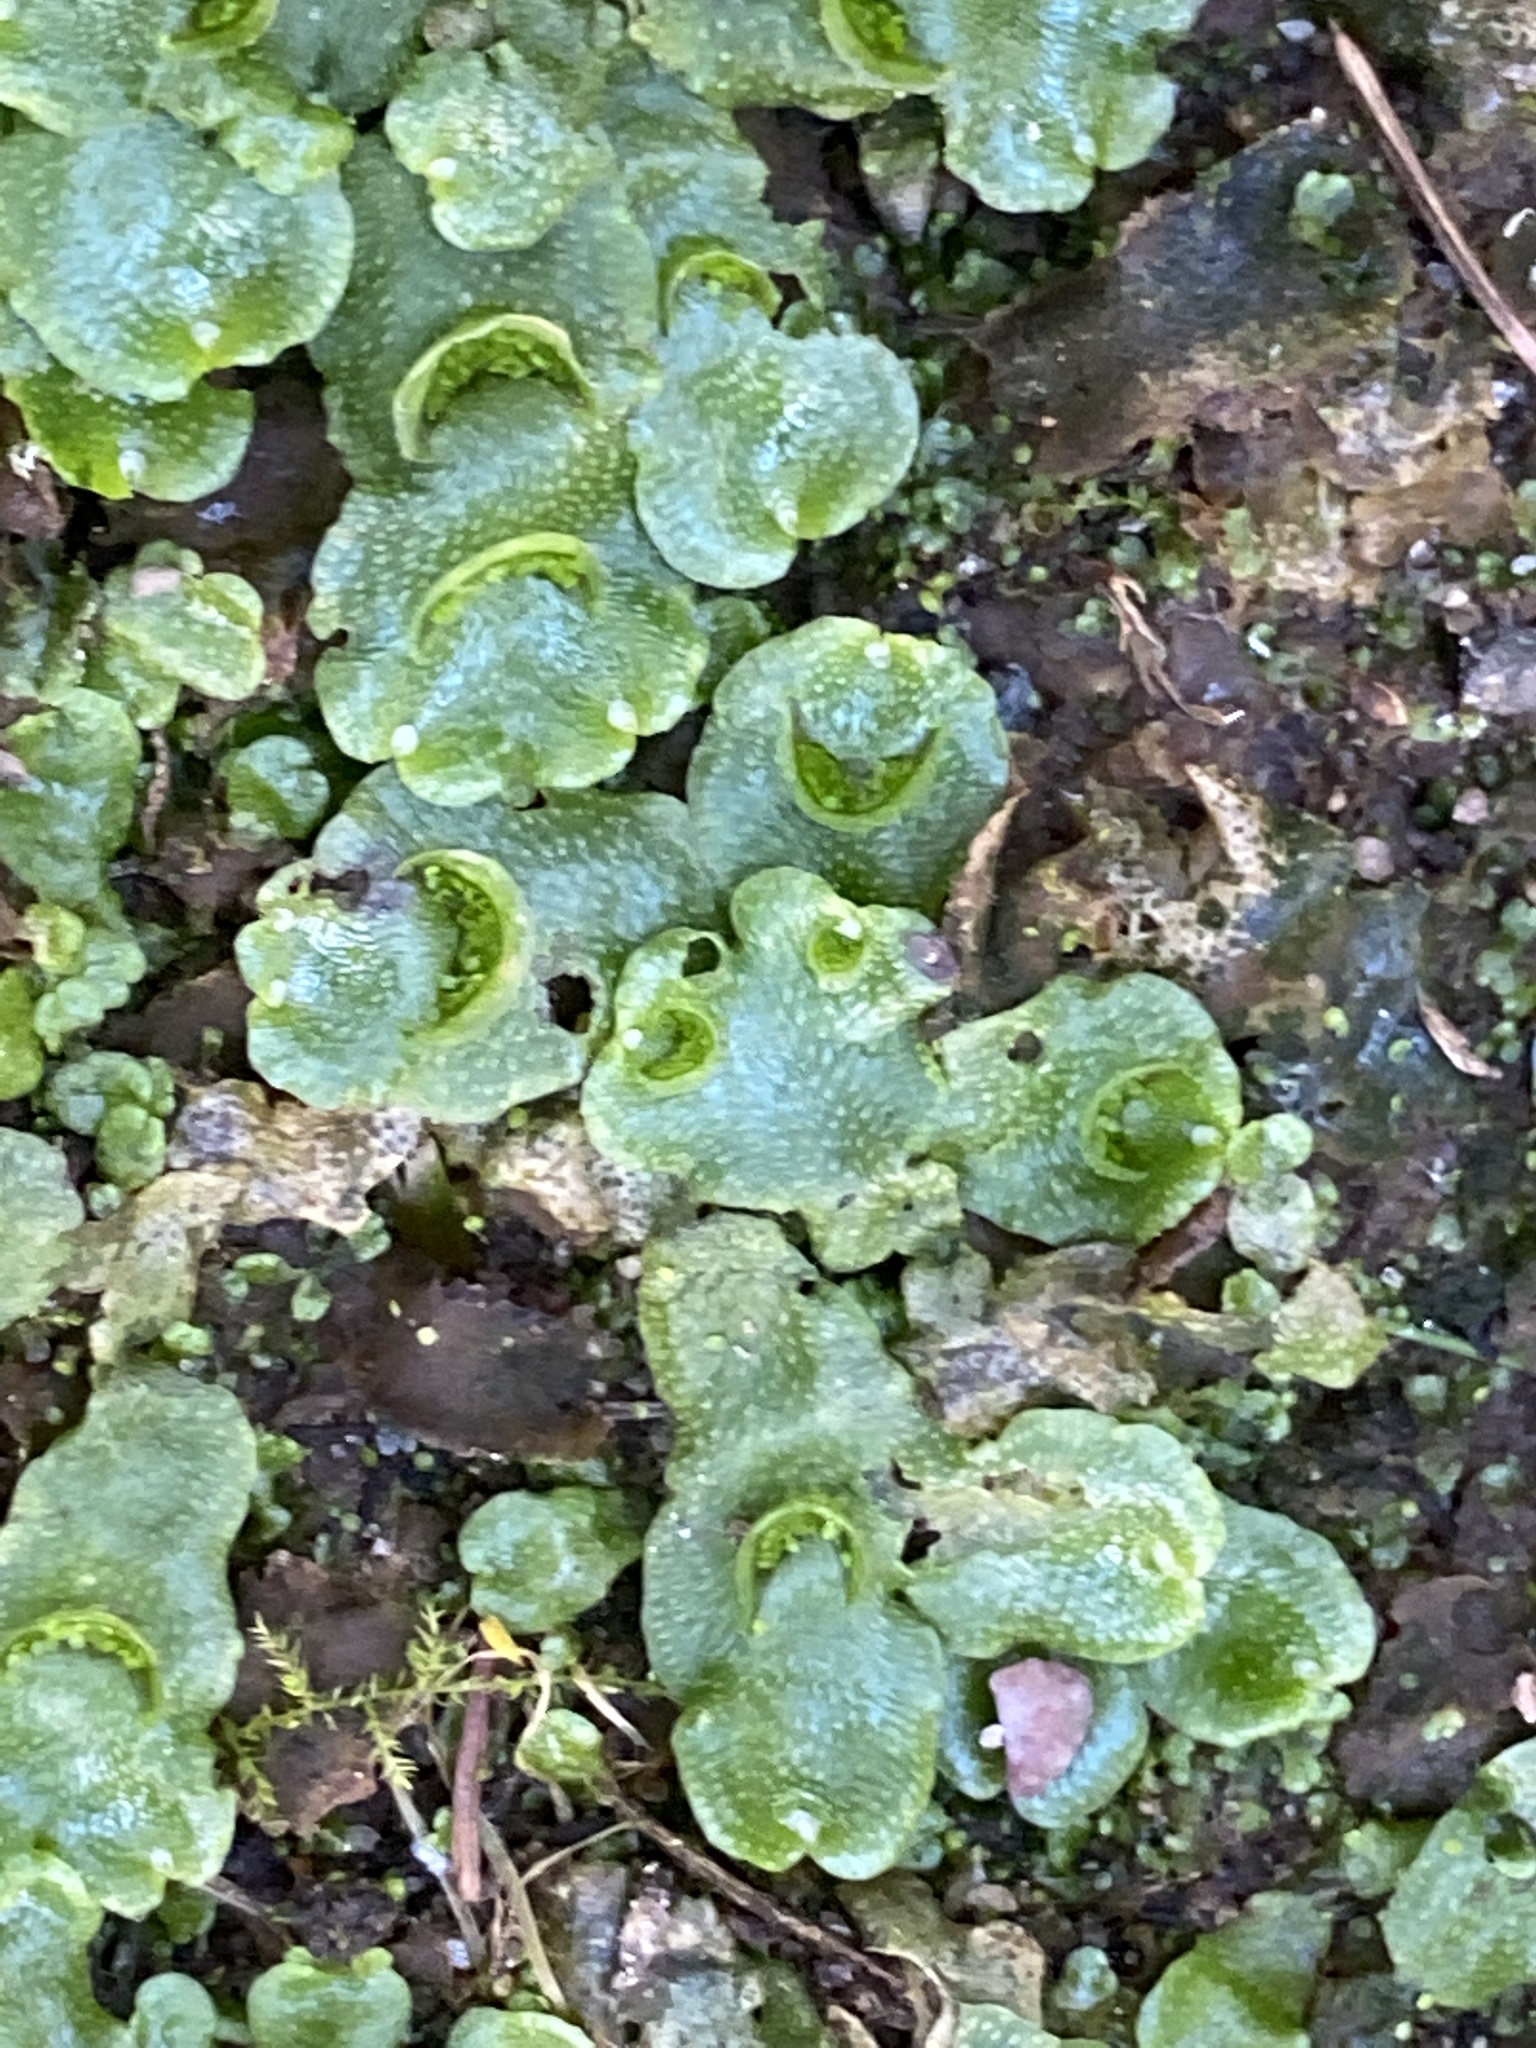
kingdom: Plantae
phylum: Marchantiophyta
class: Marchantiopsida
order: Lunulariales
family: Lunulariaceae
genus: Lunularia
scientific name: Lunularia cruciata
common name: Crescent-cup liverwort
